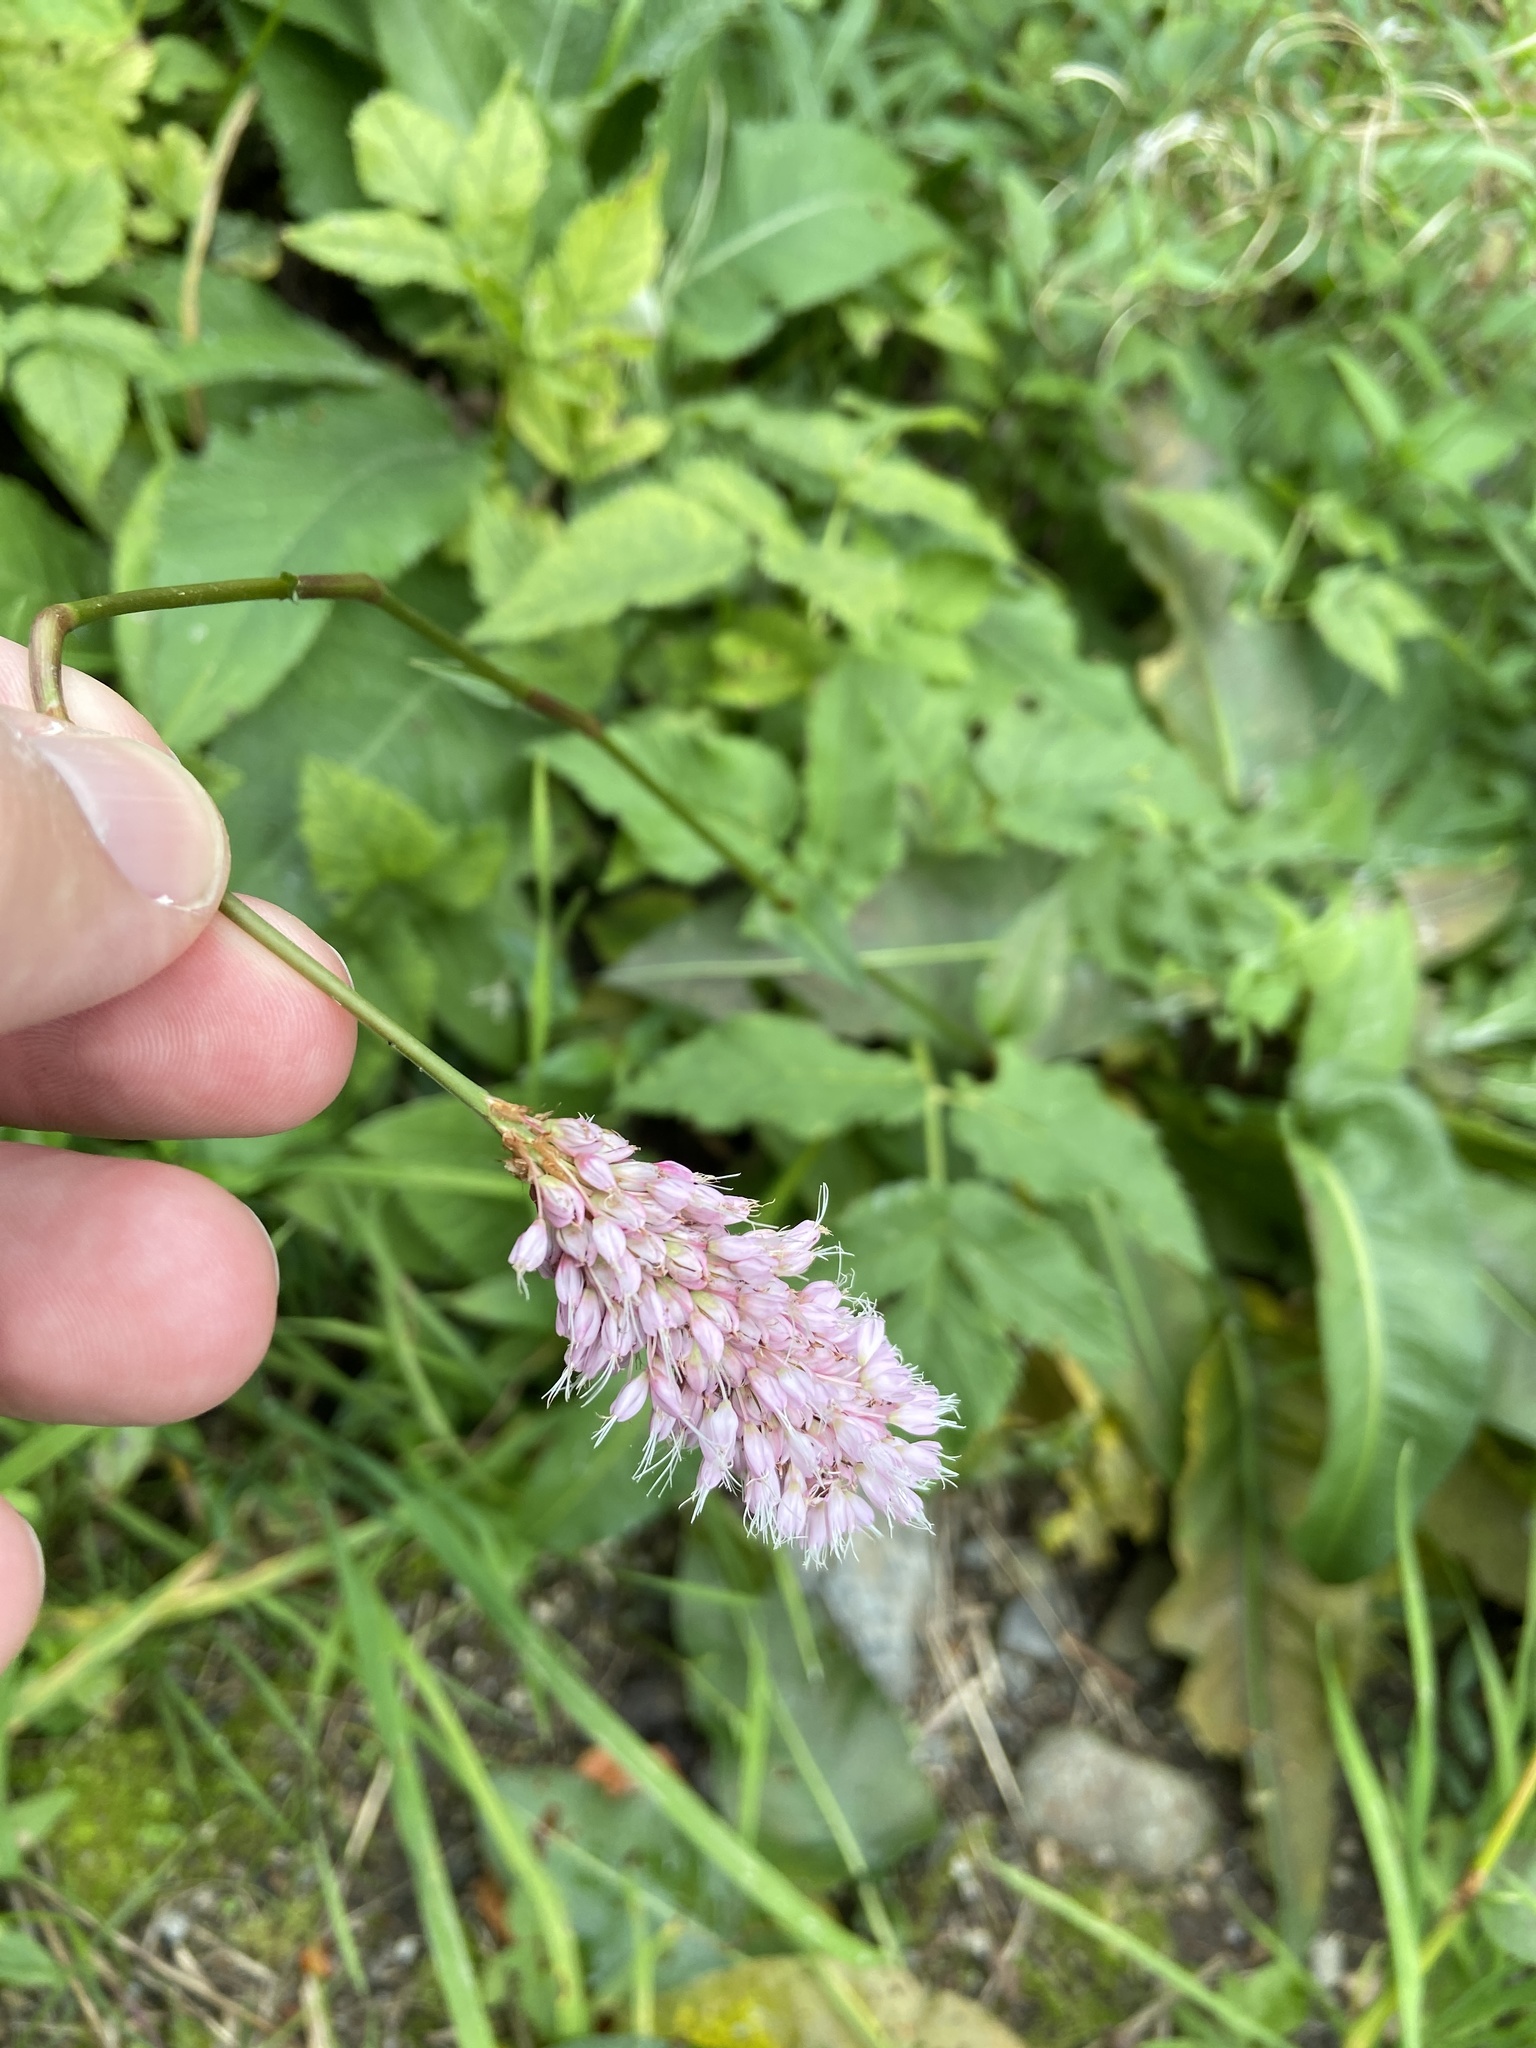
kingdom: Plantae
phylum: Tracheophyta
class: Magnoliopsida
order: Caryophyllales
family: Polygonaceae
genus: Bistorta
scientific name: Bistorta officinalis
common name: Common bistort
